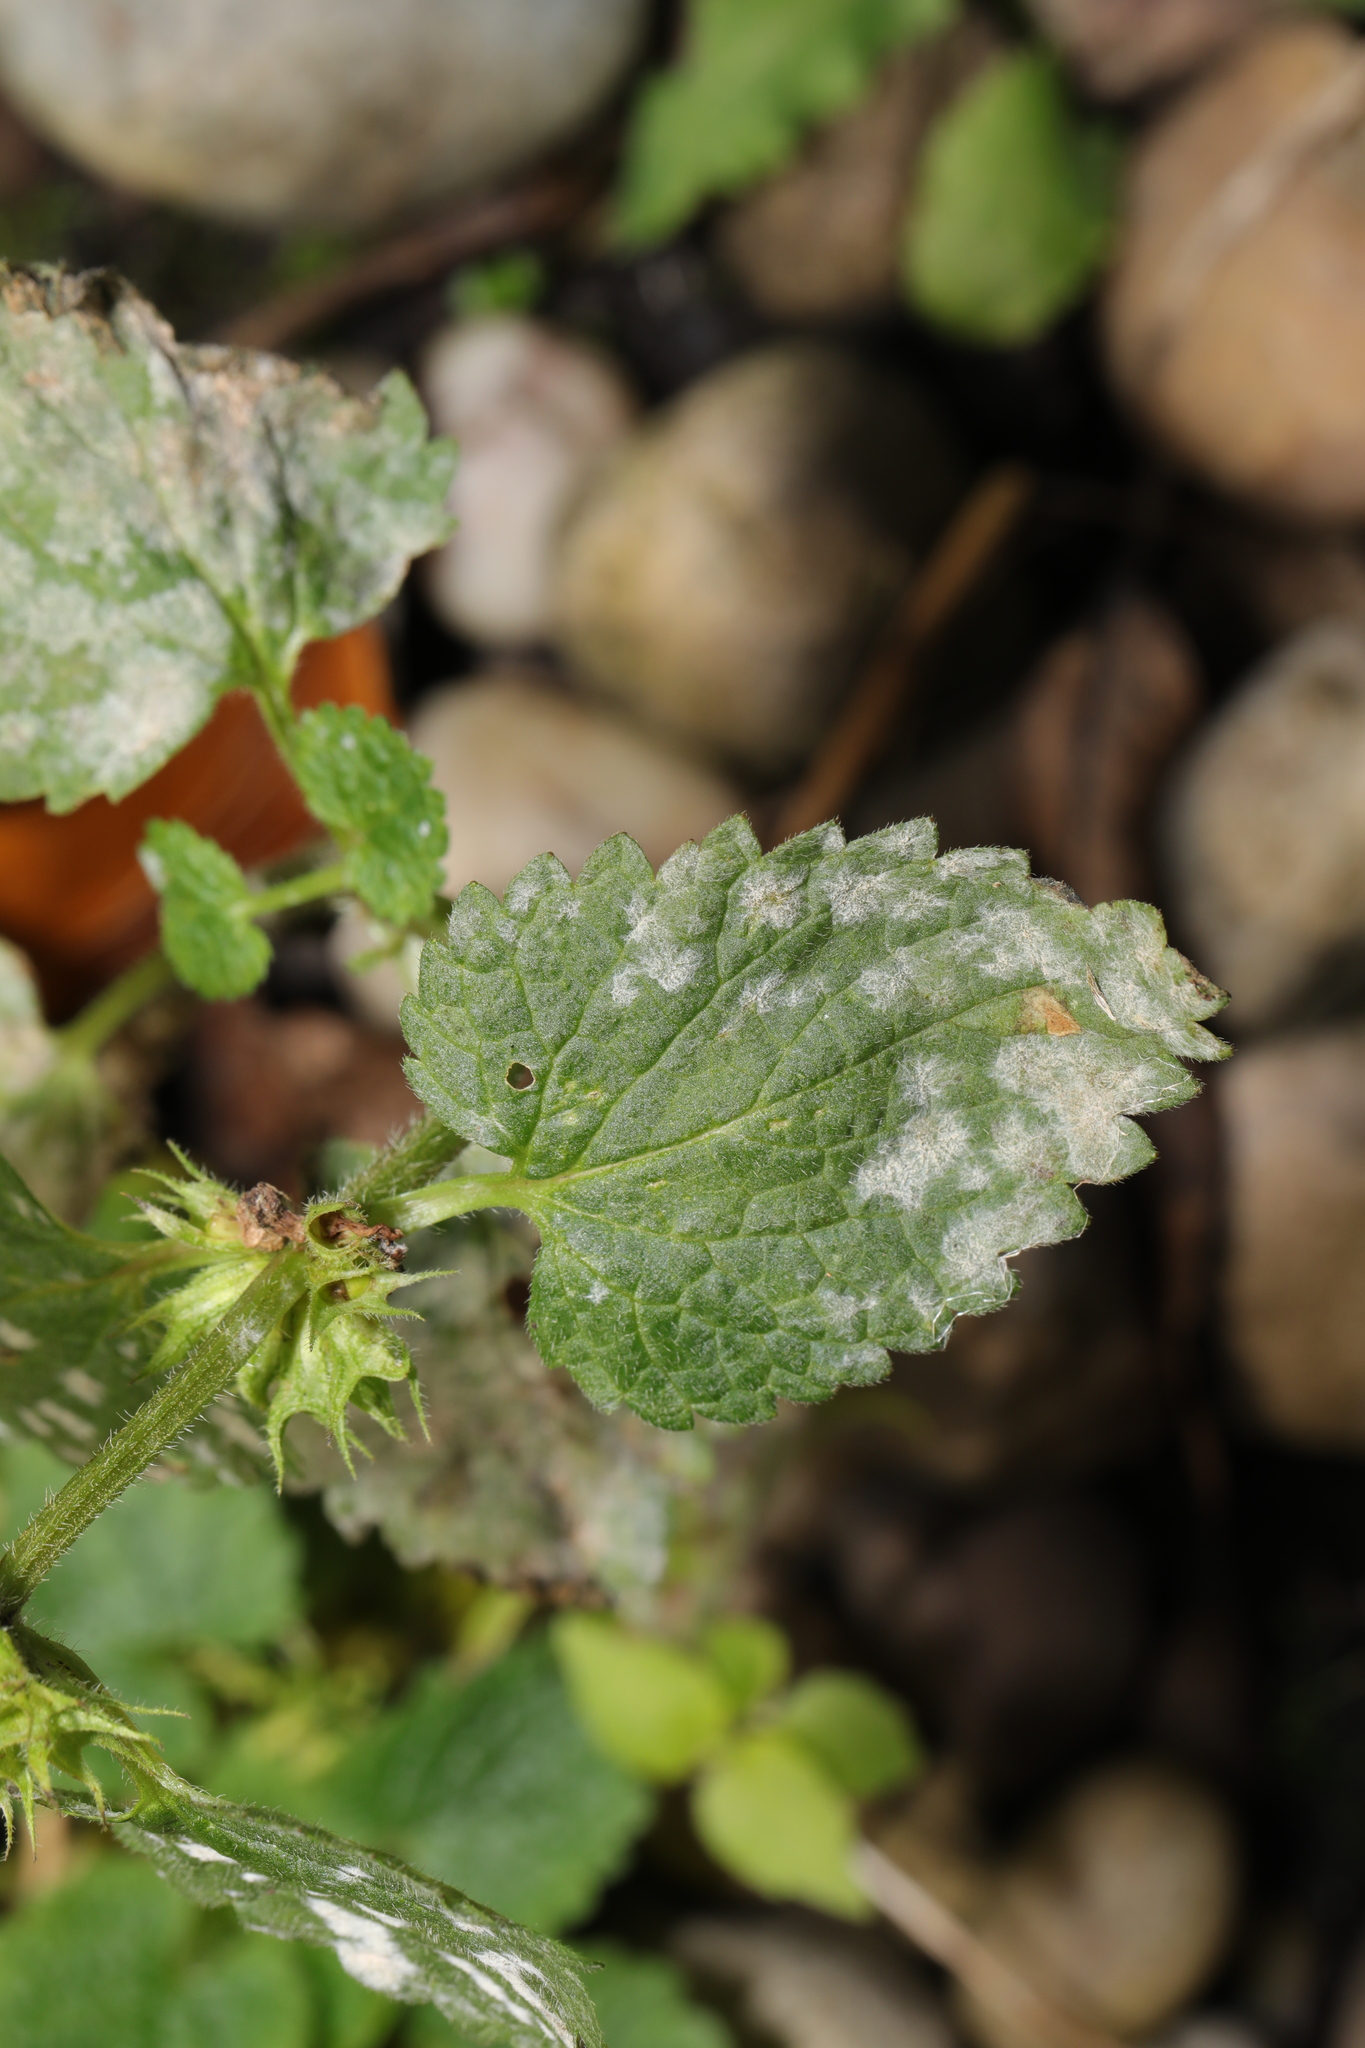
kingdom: Fungi
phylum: Ascomycota
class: Leotiomycetes
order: Helotiales
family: Erysiphaceae
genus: Neoerysiphe
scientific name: Neoerysiphe galeopsidis
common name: Mint mildew
